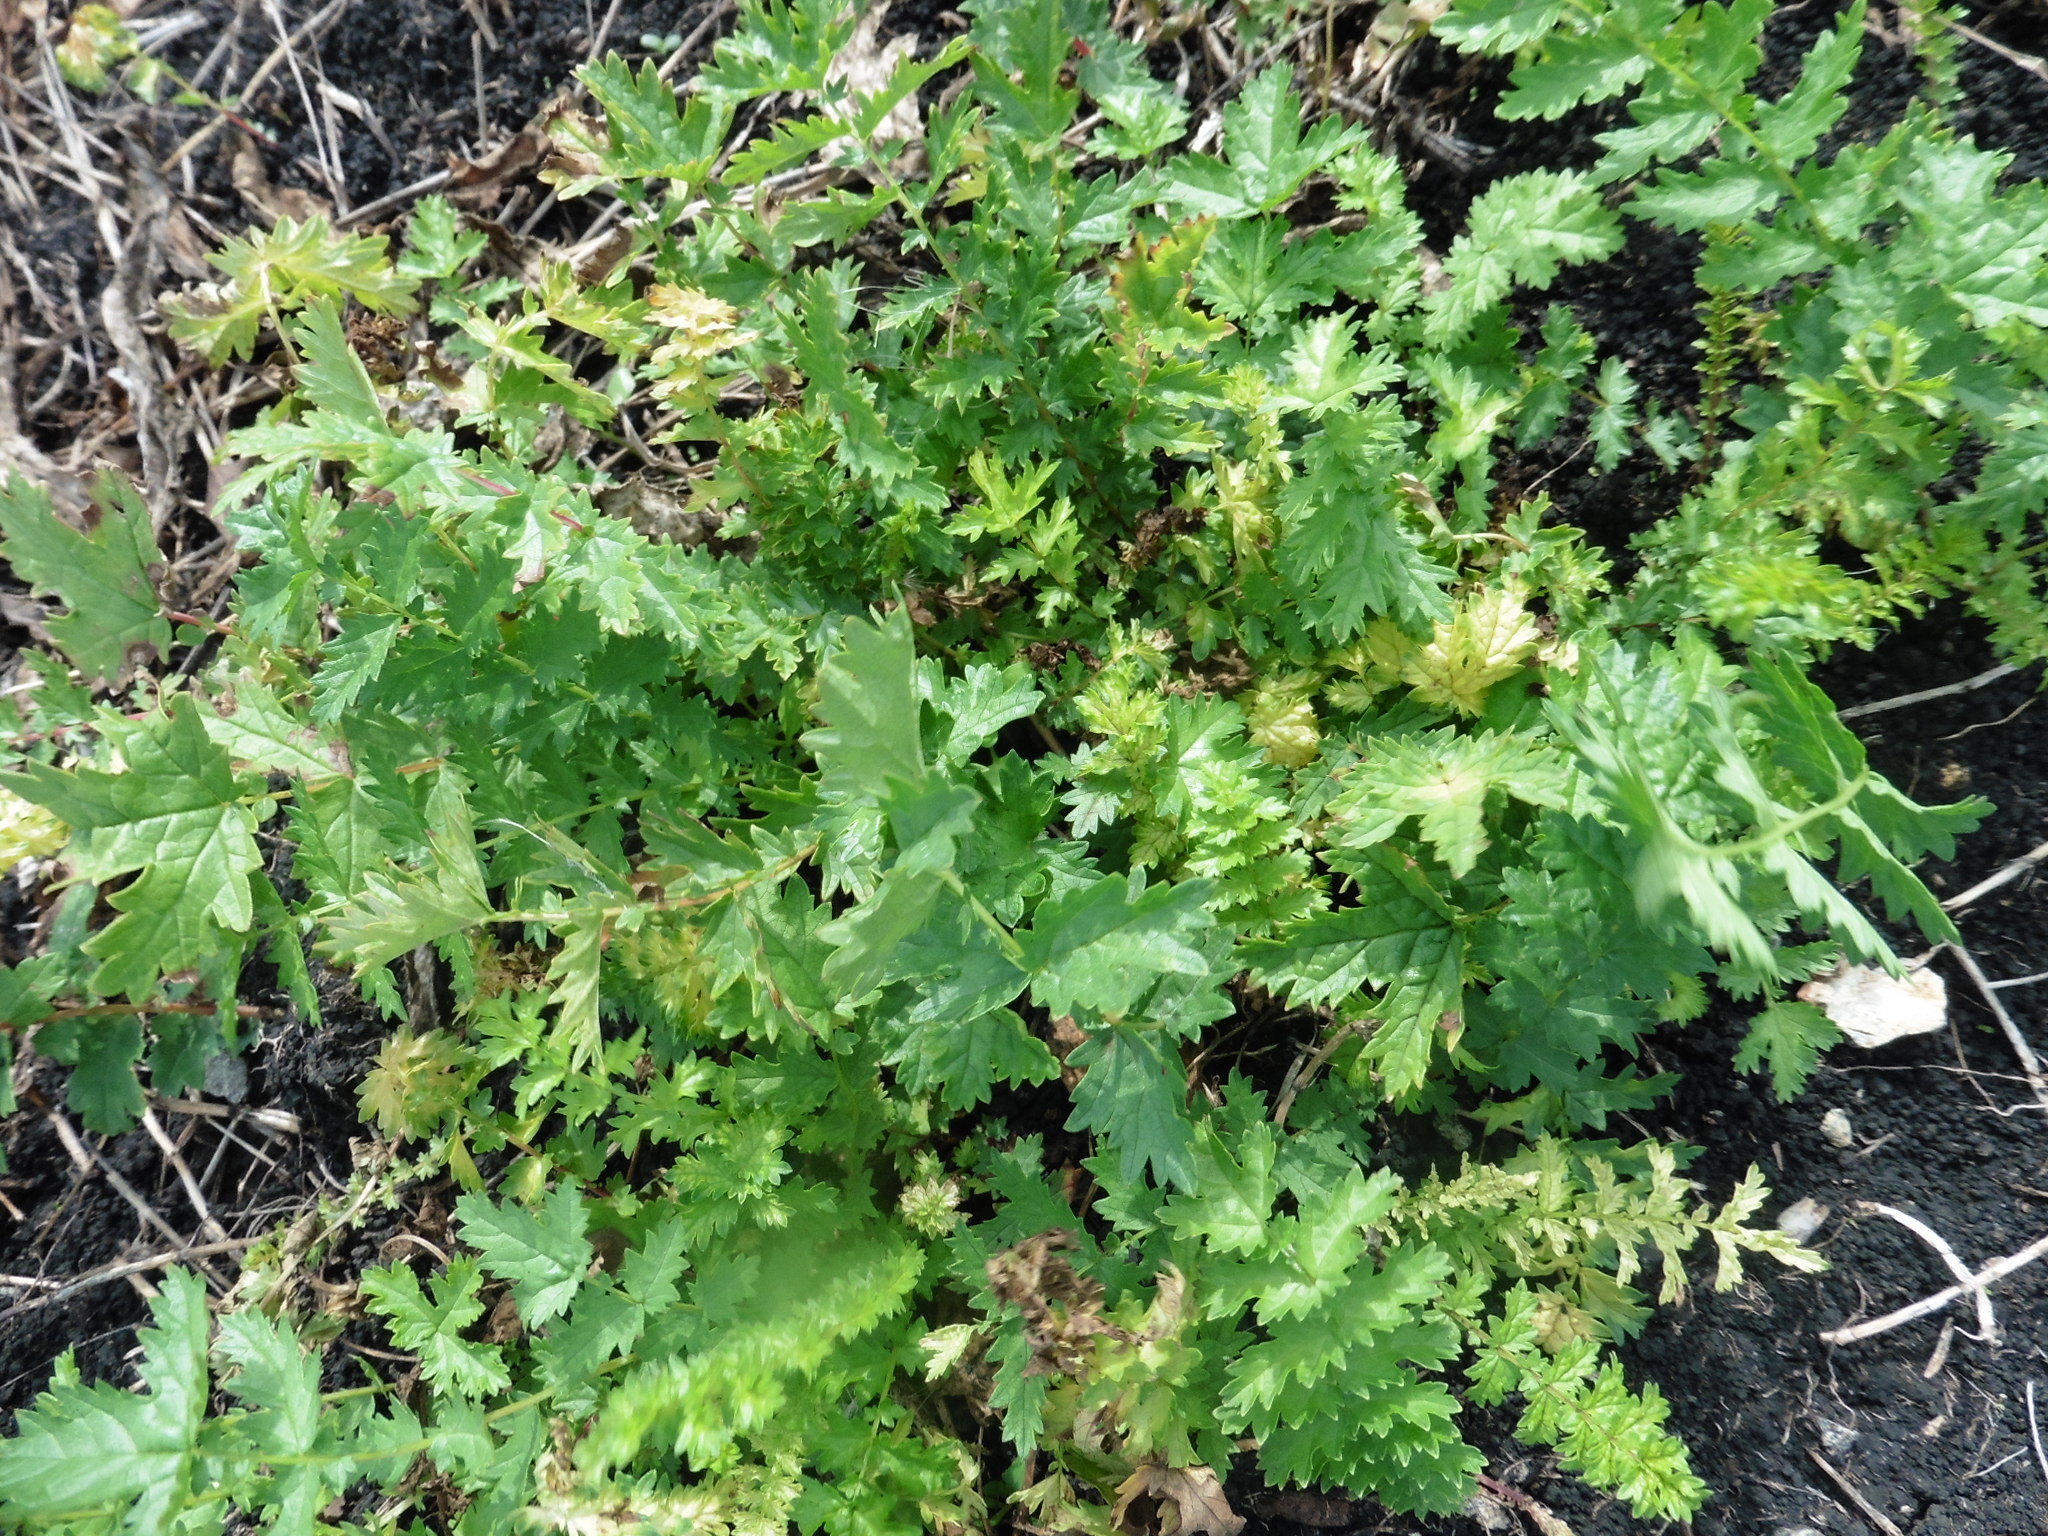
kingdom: Plantae
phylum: Tracheophyta
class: Magnoliopsida
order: Rosales
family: Rosaceae
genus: Filipendula
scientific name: Filipendula vulgaris
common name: Dropwort
